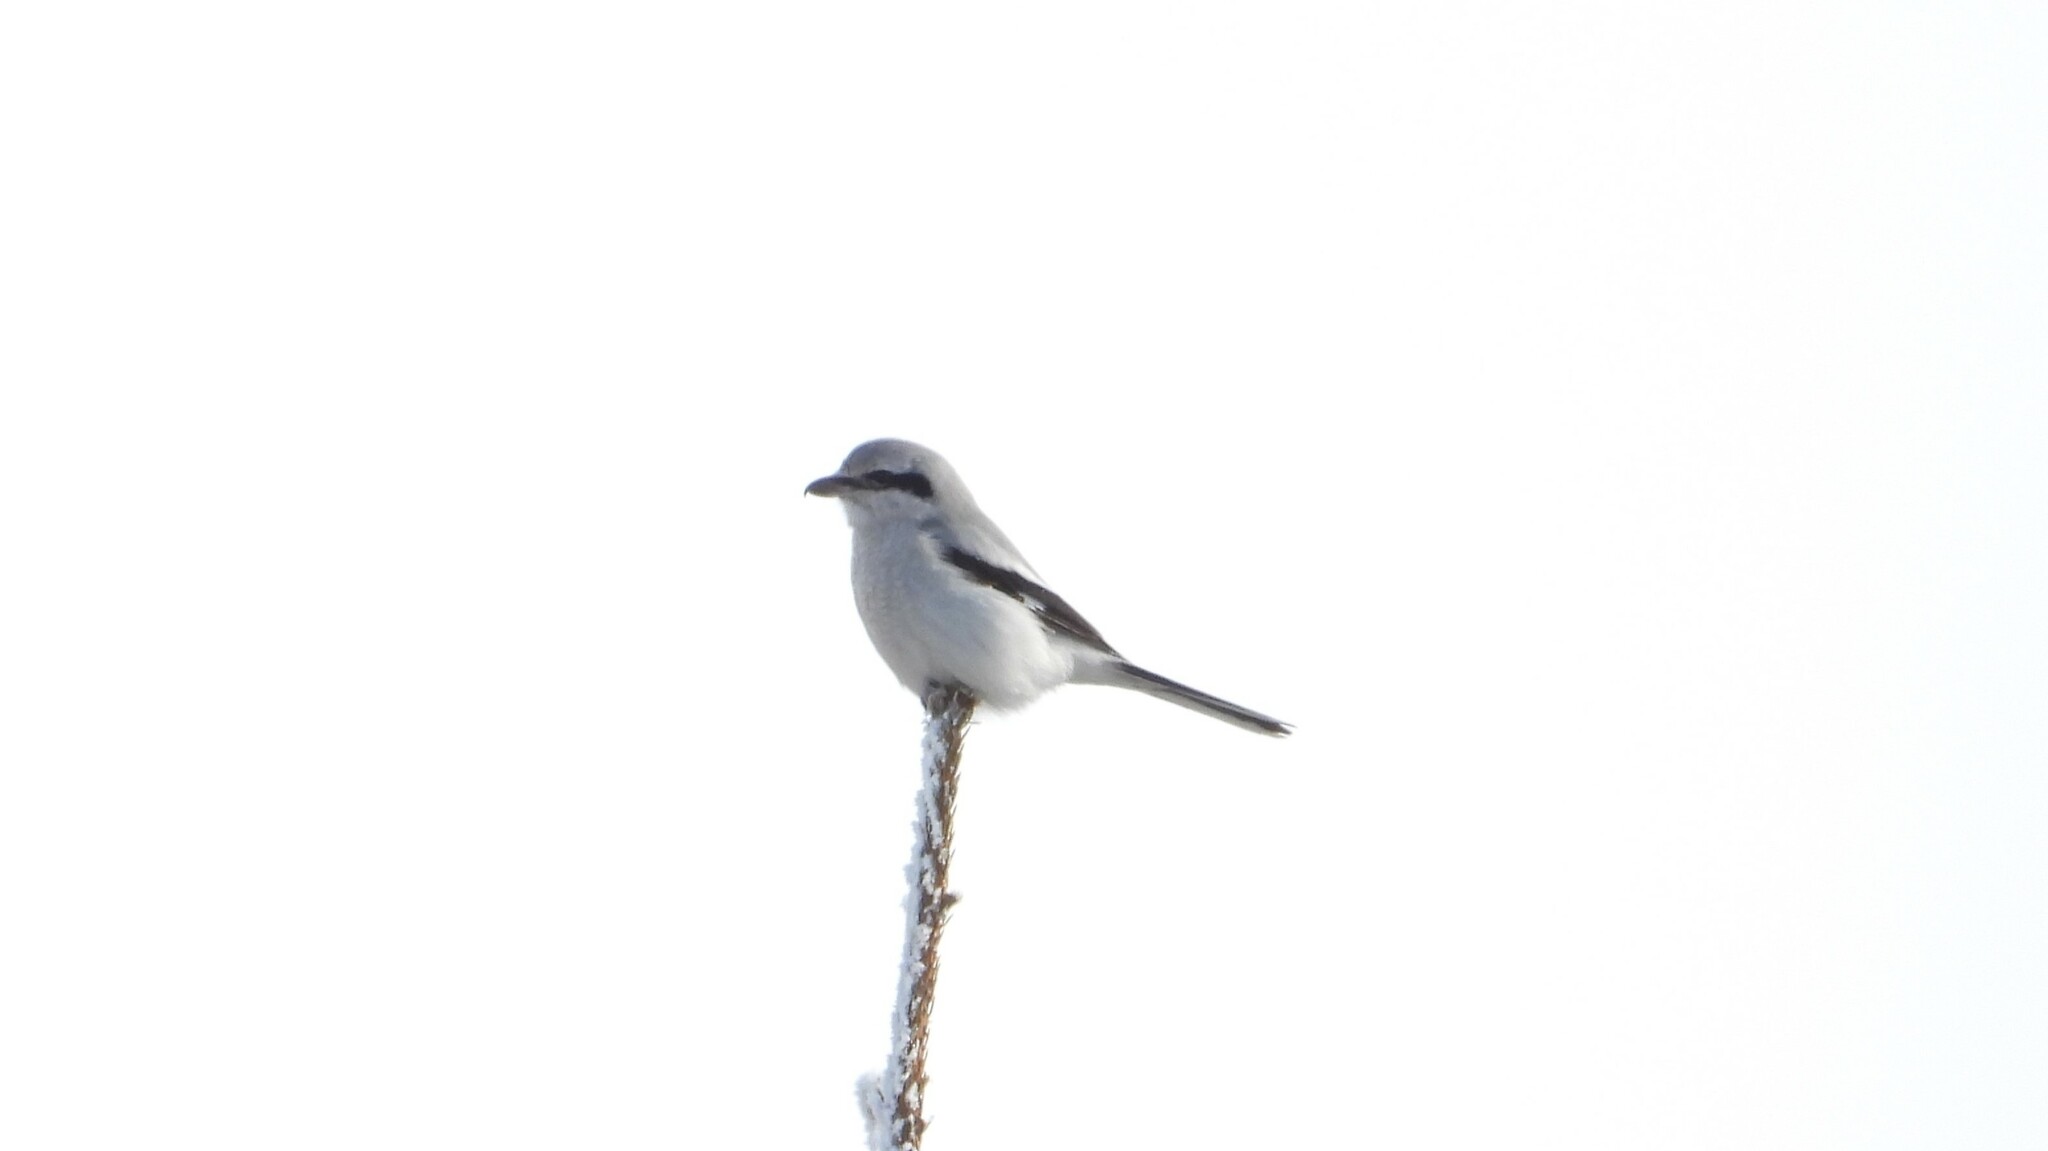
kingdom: Animalia
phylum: Chordata
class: Aves
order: Passeriformes
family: Laniidae
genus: Lanius
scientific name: Lanius borealis
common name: Northern shrike
